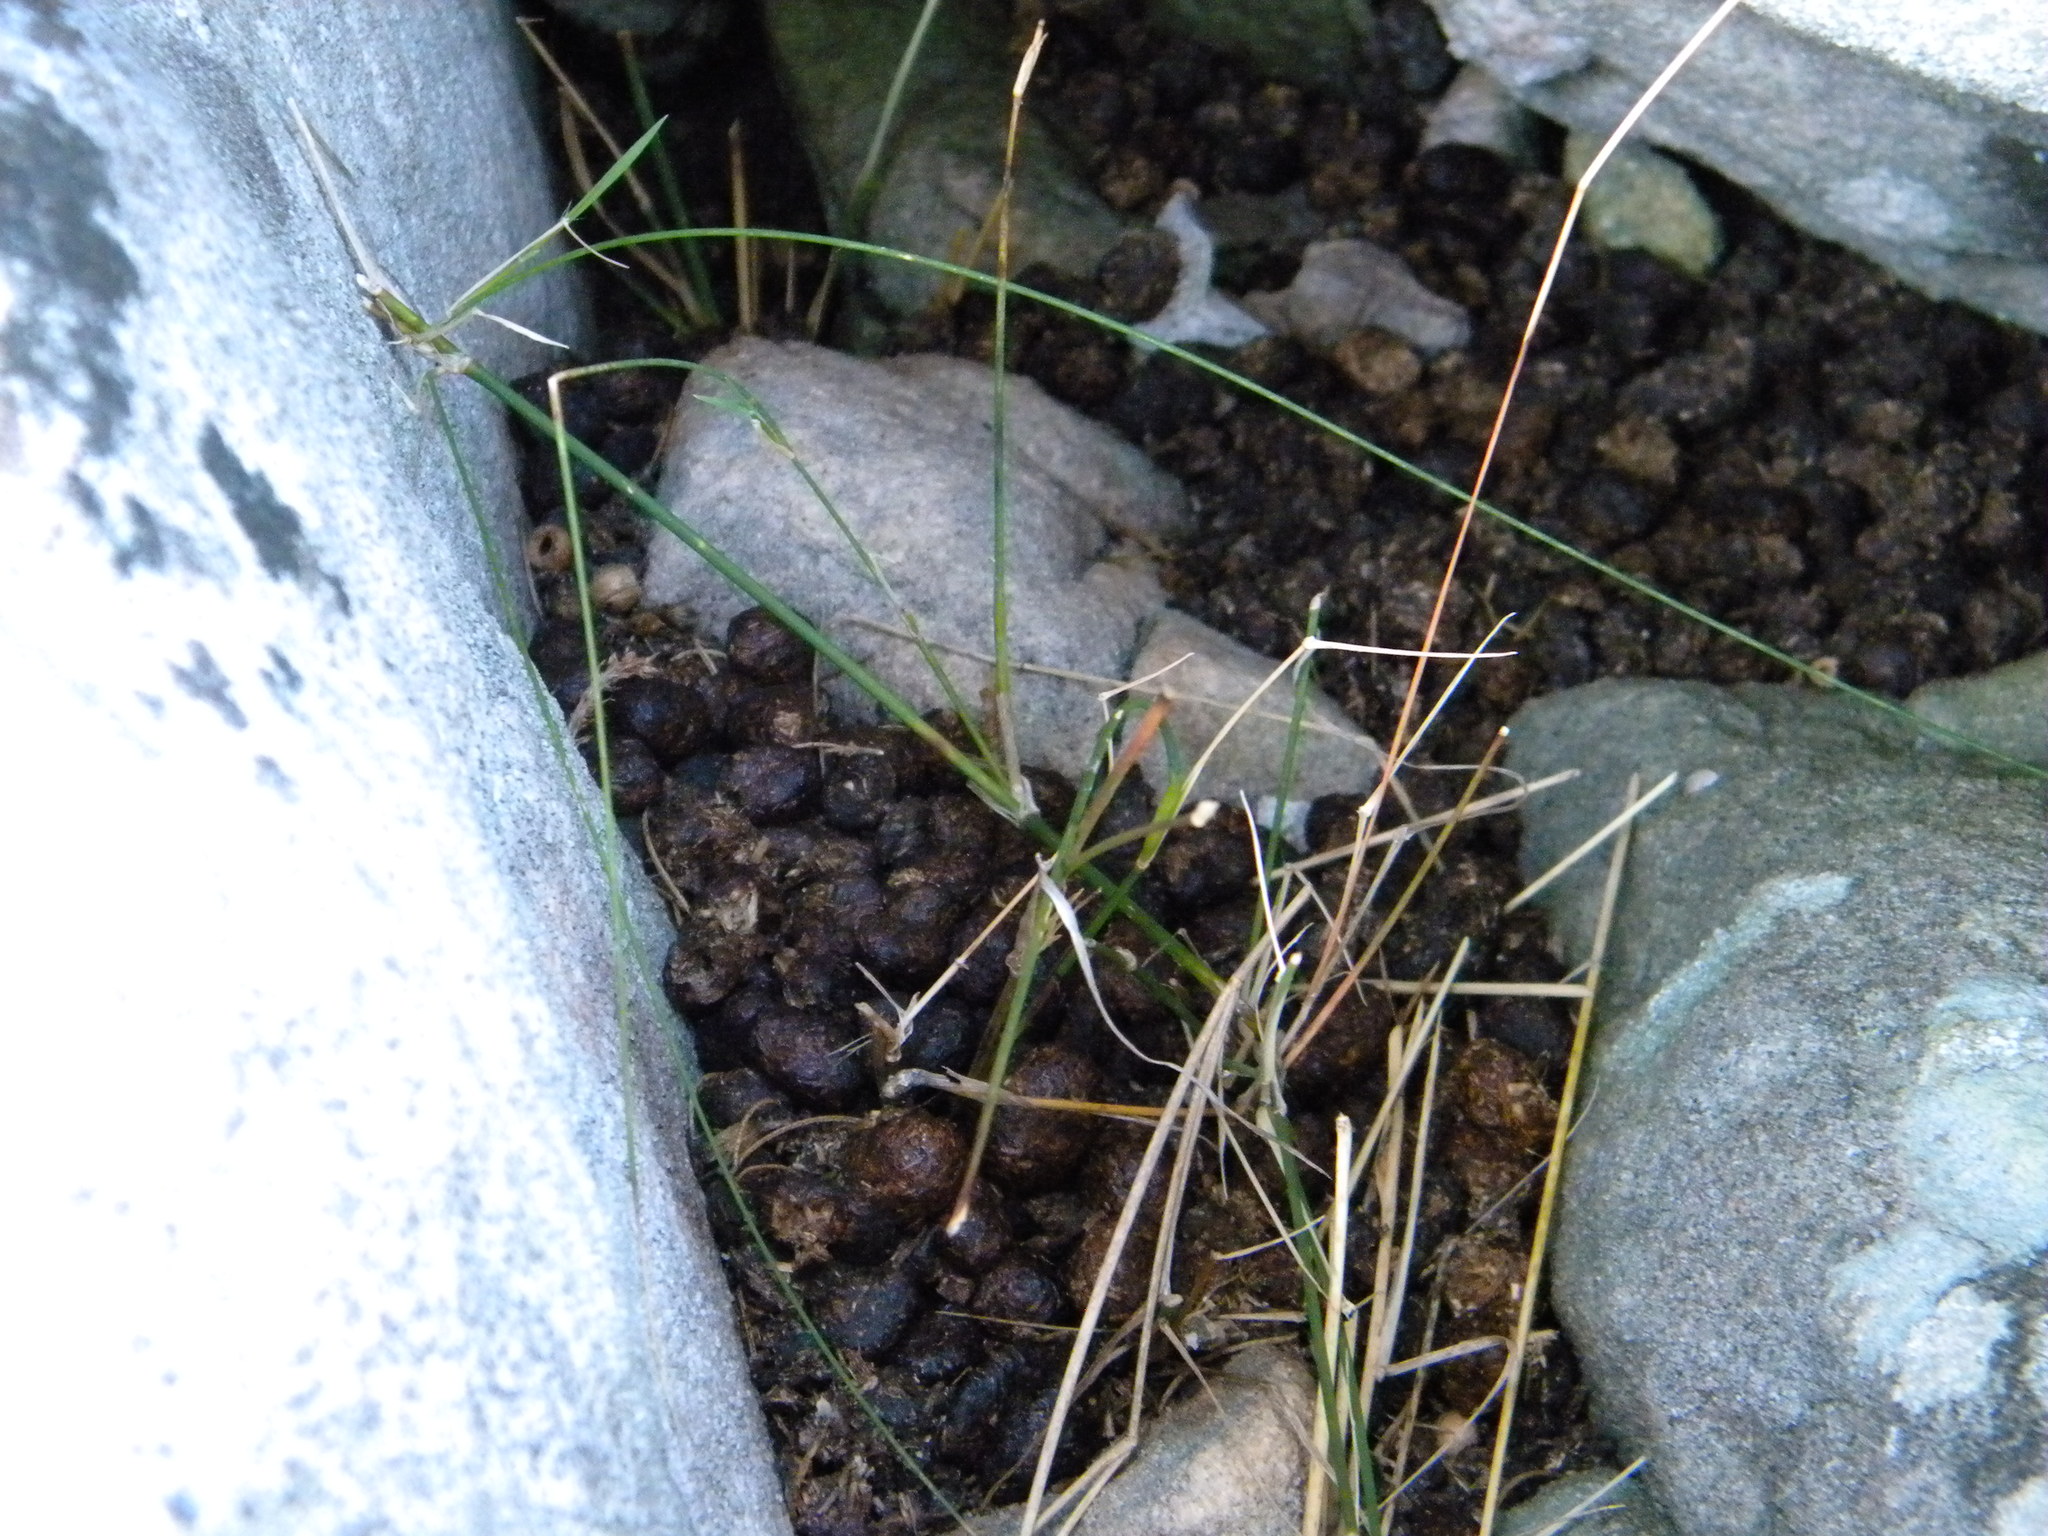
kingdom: Animalia
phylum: Chordata
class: Mammalia
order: Hyracoidea
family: Procaviidae
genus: Procavia
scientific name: Procavia capensis
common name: Rock hyrax
